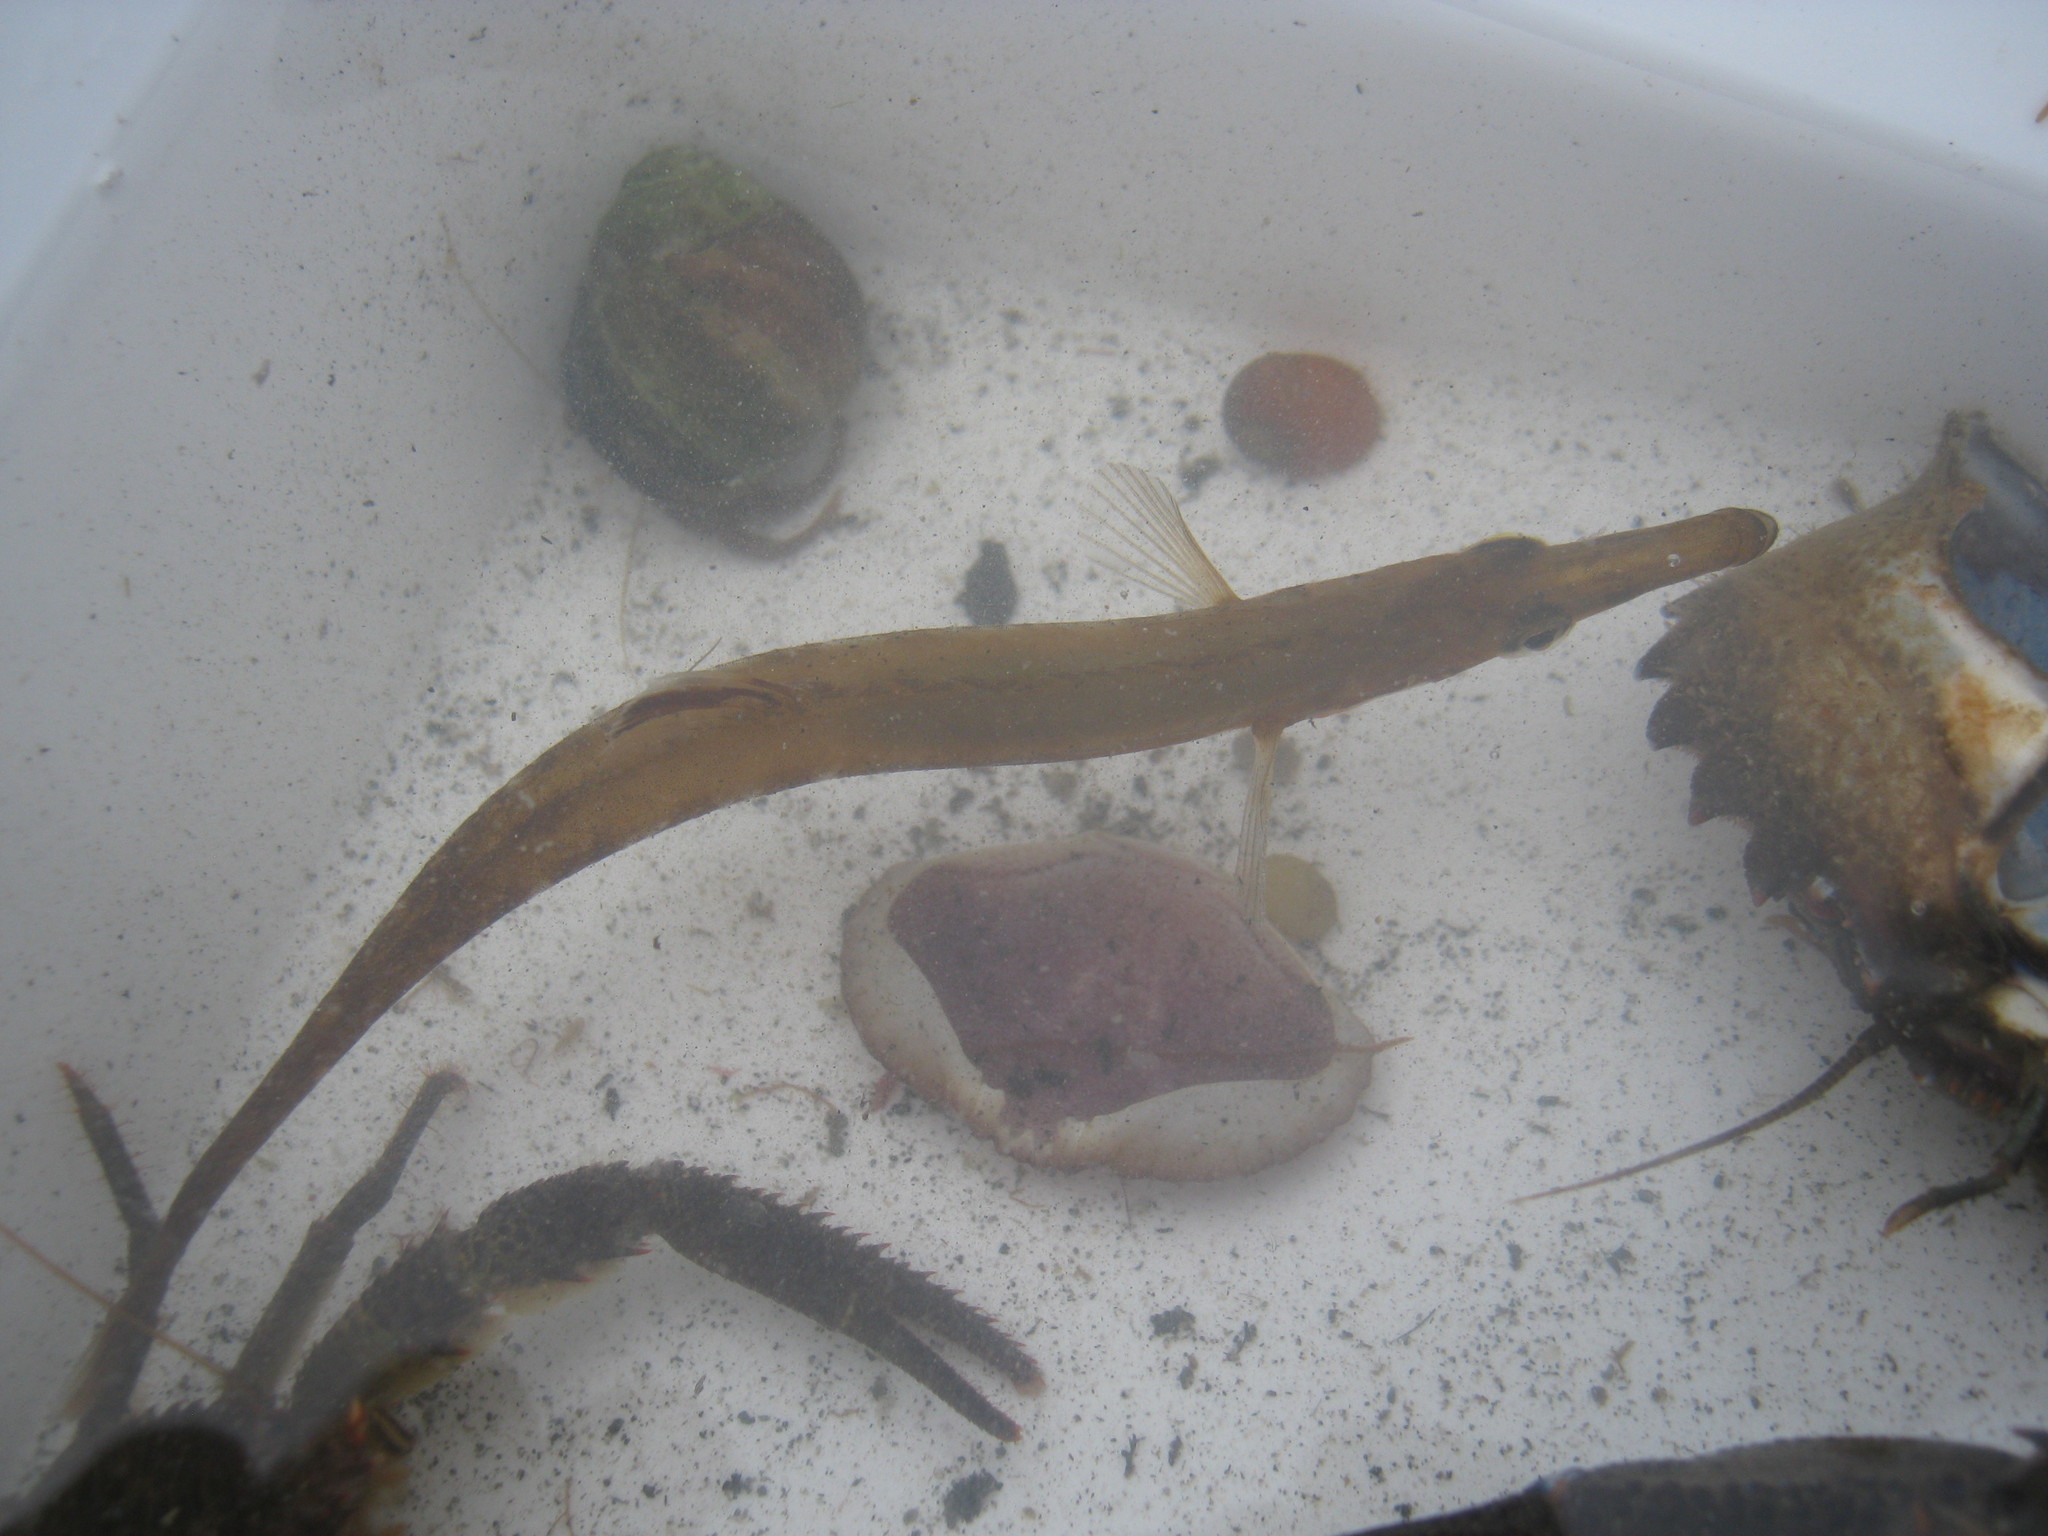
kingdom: Animalia
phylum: Chordata
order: Gasterosteiformes
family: Gasterosteidae
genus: Spinachia
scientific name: Spinachia spinachia
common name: Fifteen-spined stickleback
